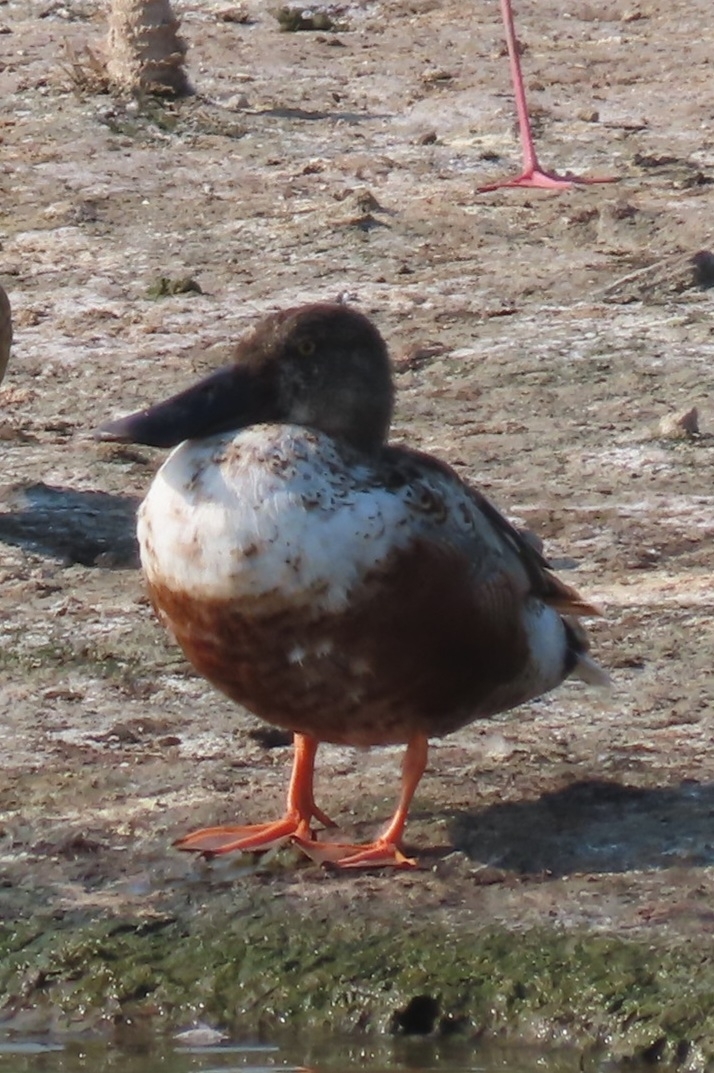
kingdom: Animalia
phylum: Chordata
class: Aves
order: Anseriformes
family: Anatidae
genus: Spatula
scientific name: Spatula clypeata
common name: Northern shoveler
